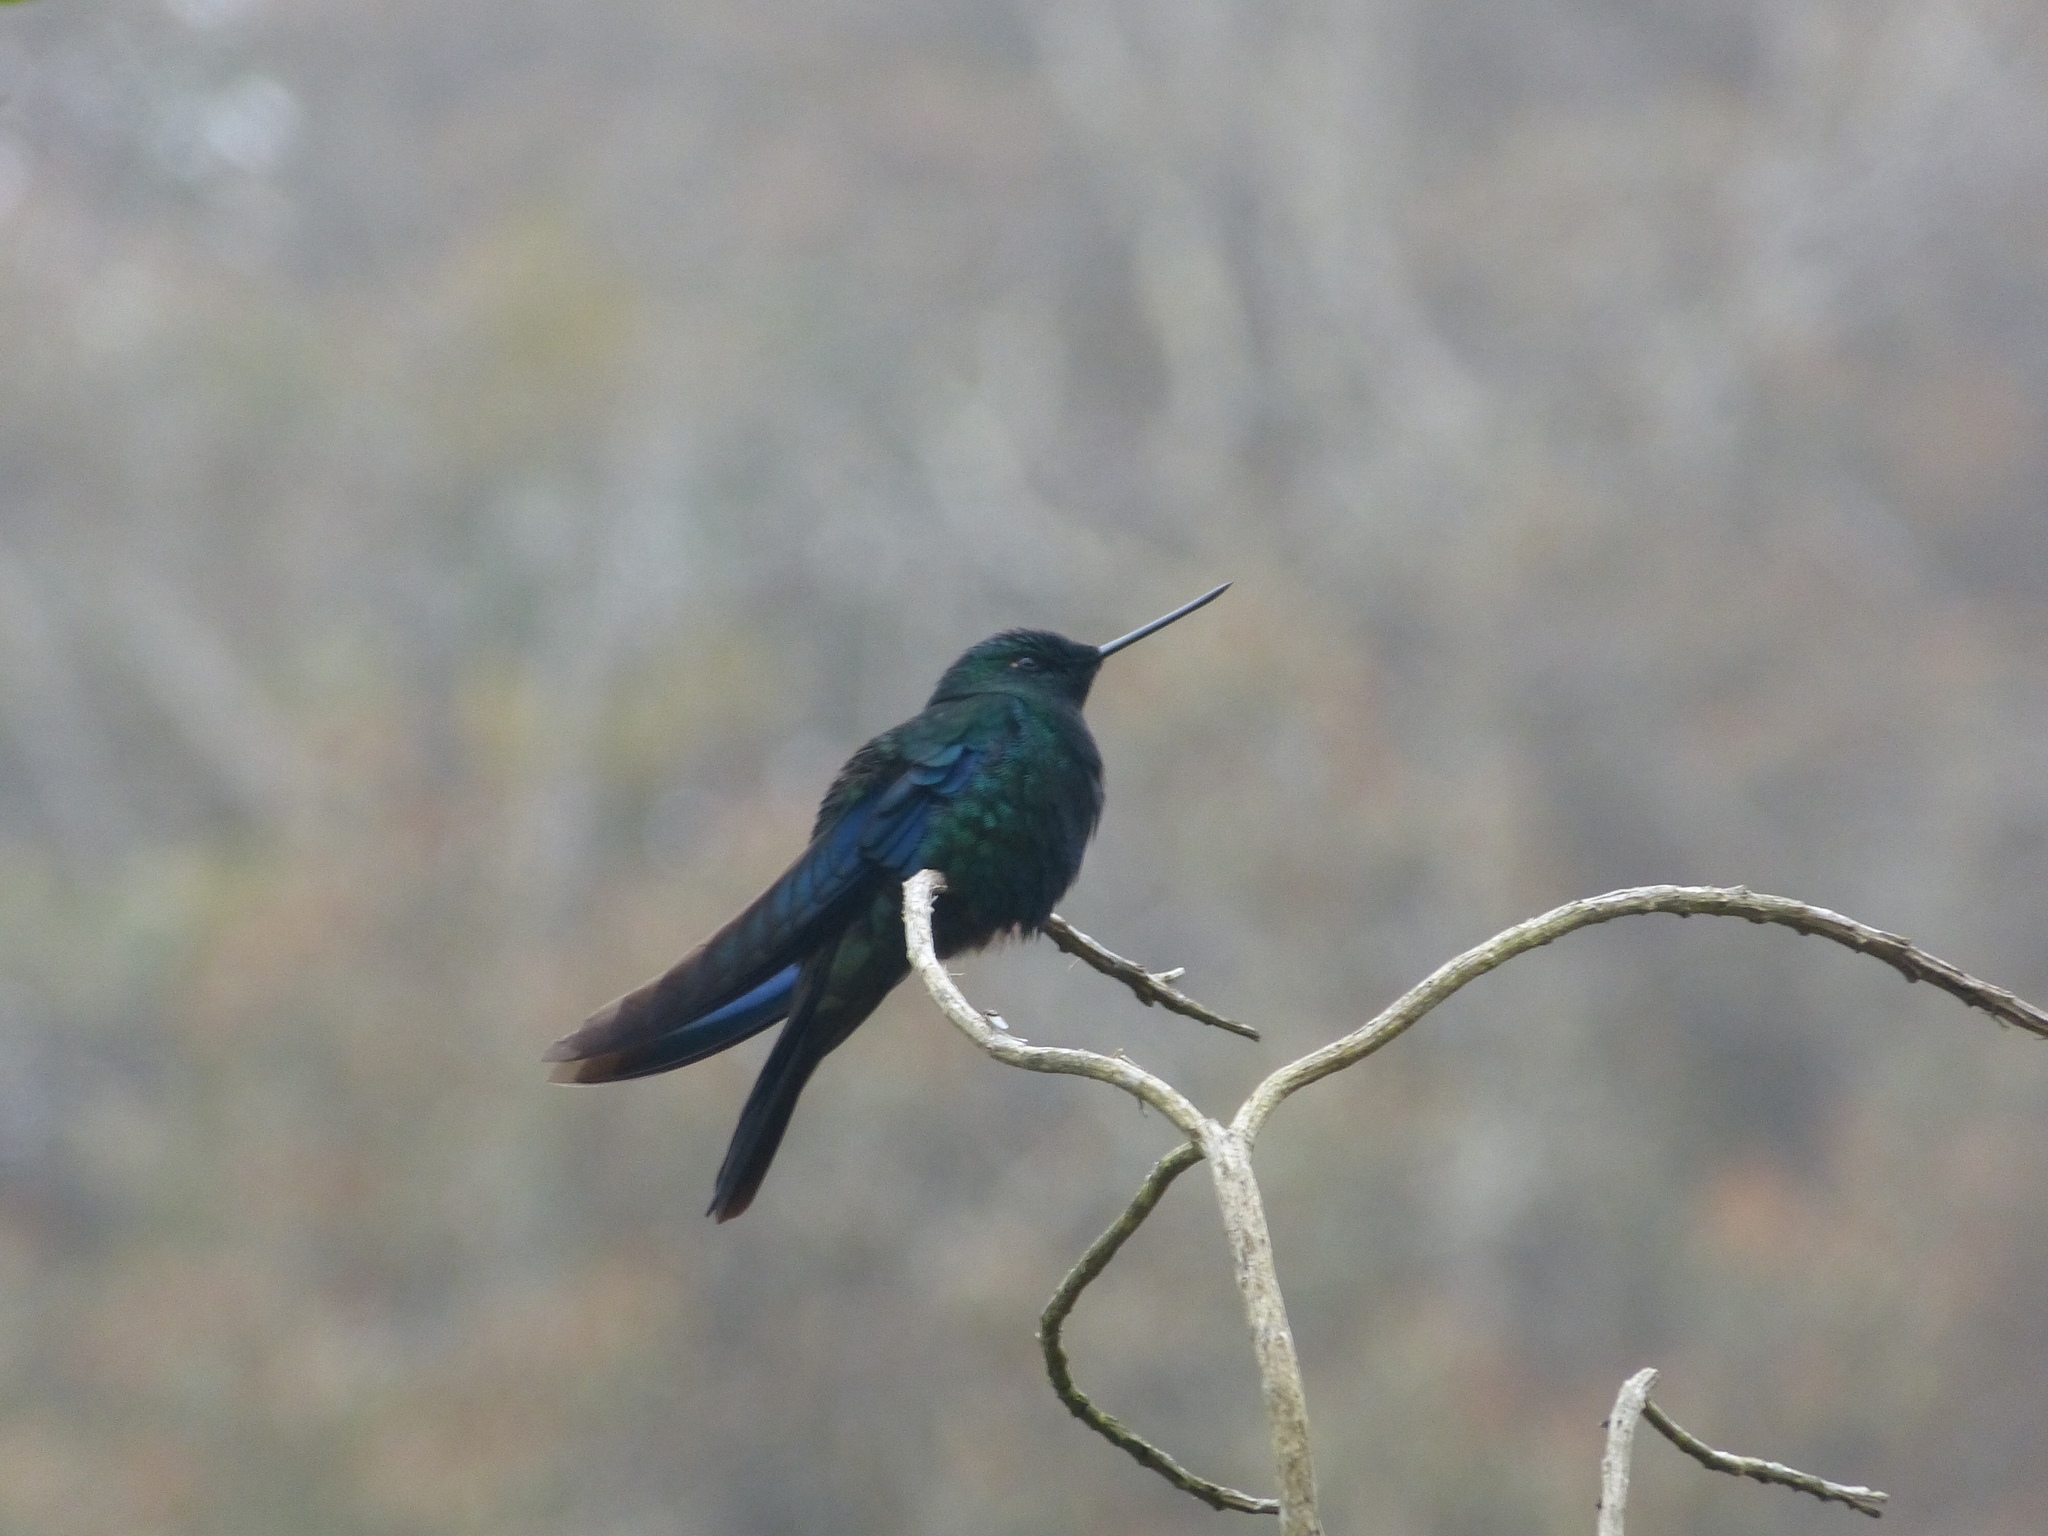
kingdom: Animalia
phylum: Chordata
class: Aves
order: Apodiformes
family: Trochilidae
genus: Pterophanes
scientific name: Pterophanes cyanopterus
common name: Great sapphirewing
